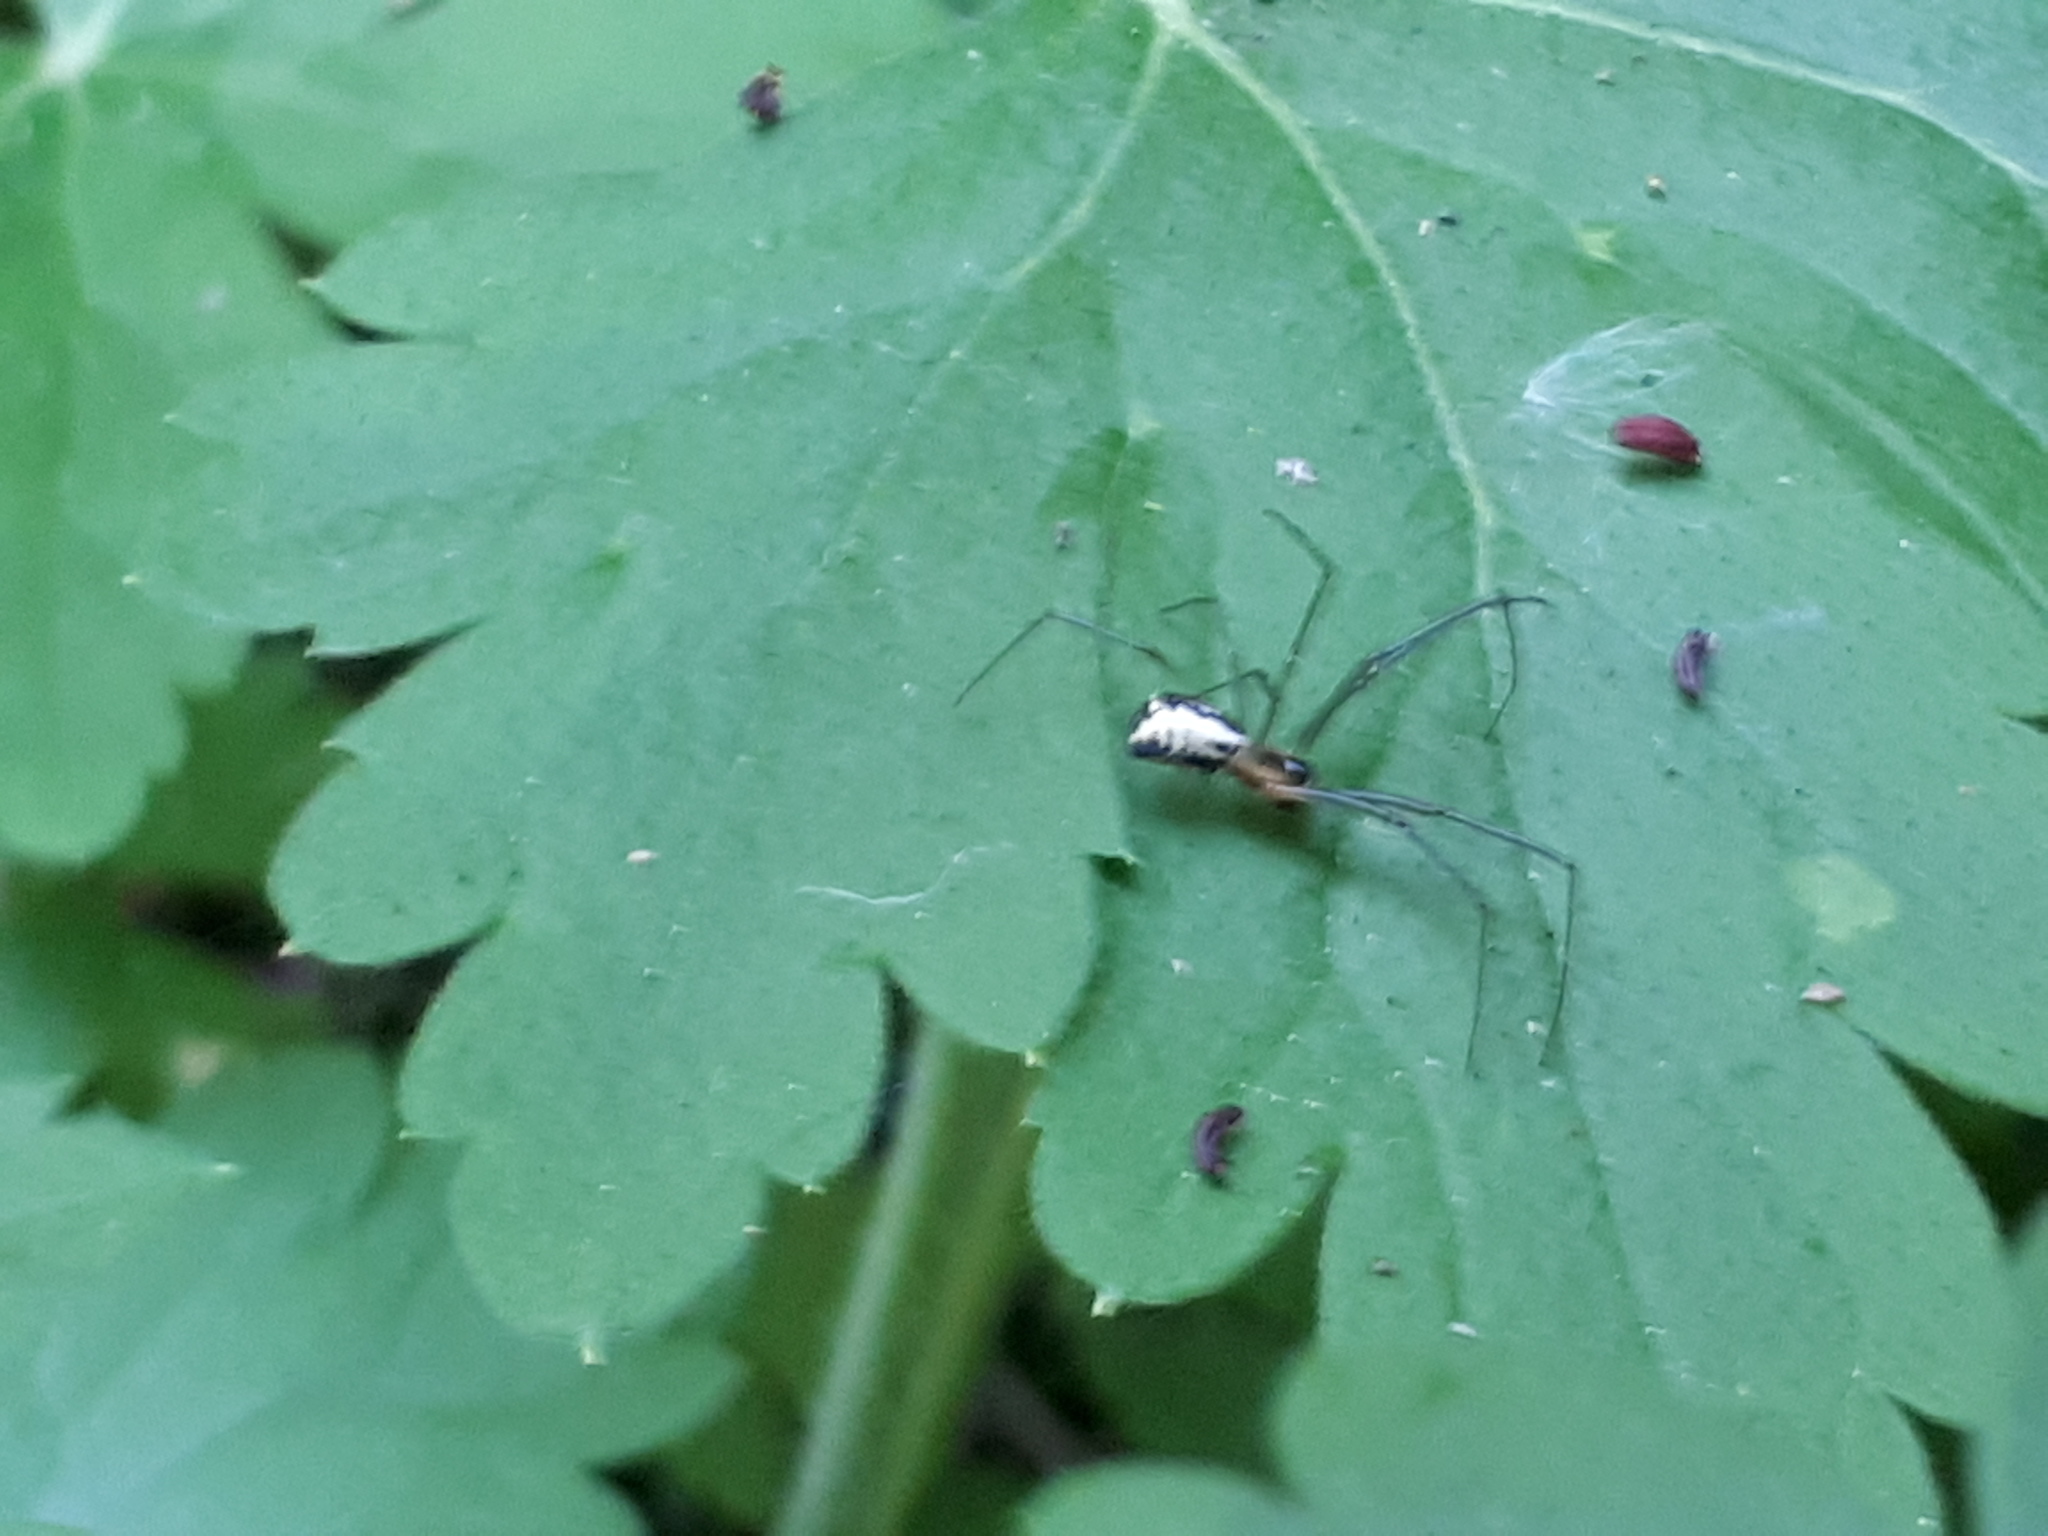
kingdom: Animalia
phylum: Arthropoda
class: Arachnida
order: Araneae
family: Linyphiidae
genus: Neriene
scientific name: Neriene radiata
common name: Filmy dome spider
